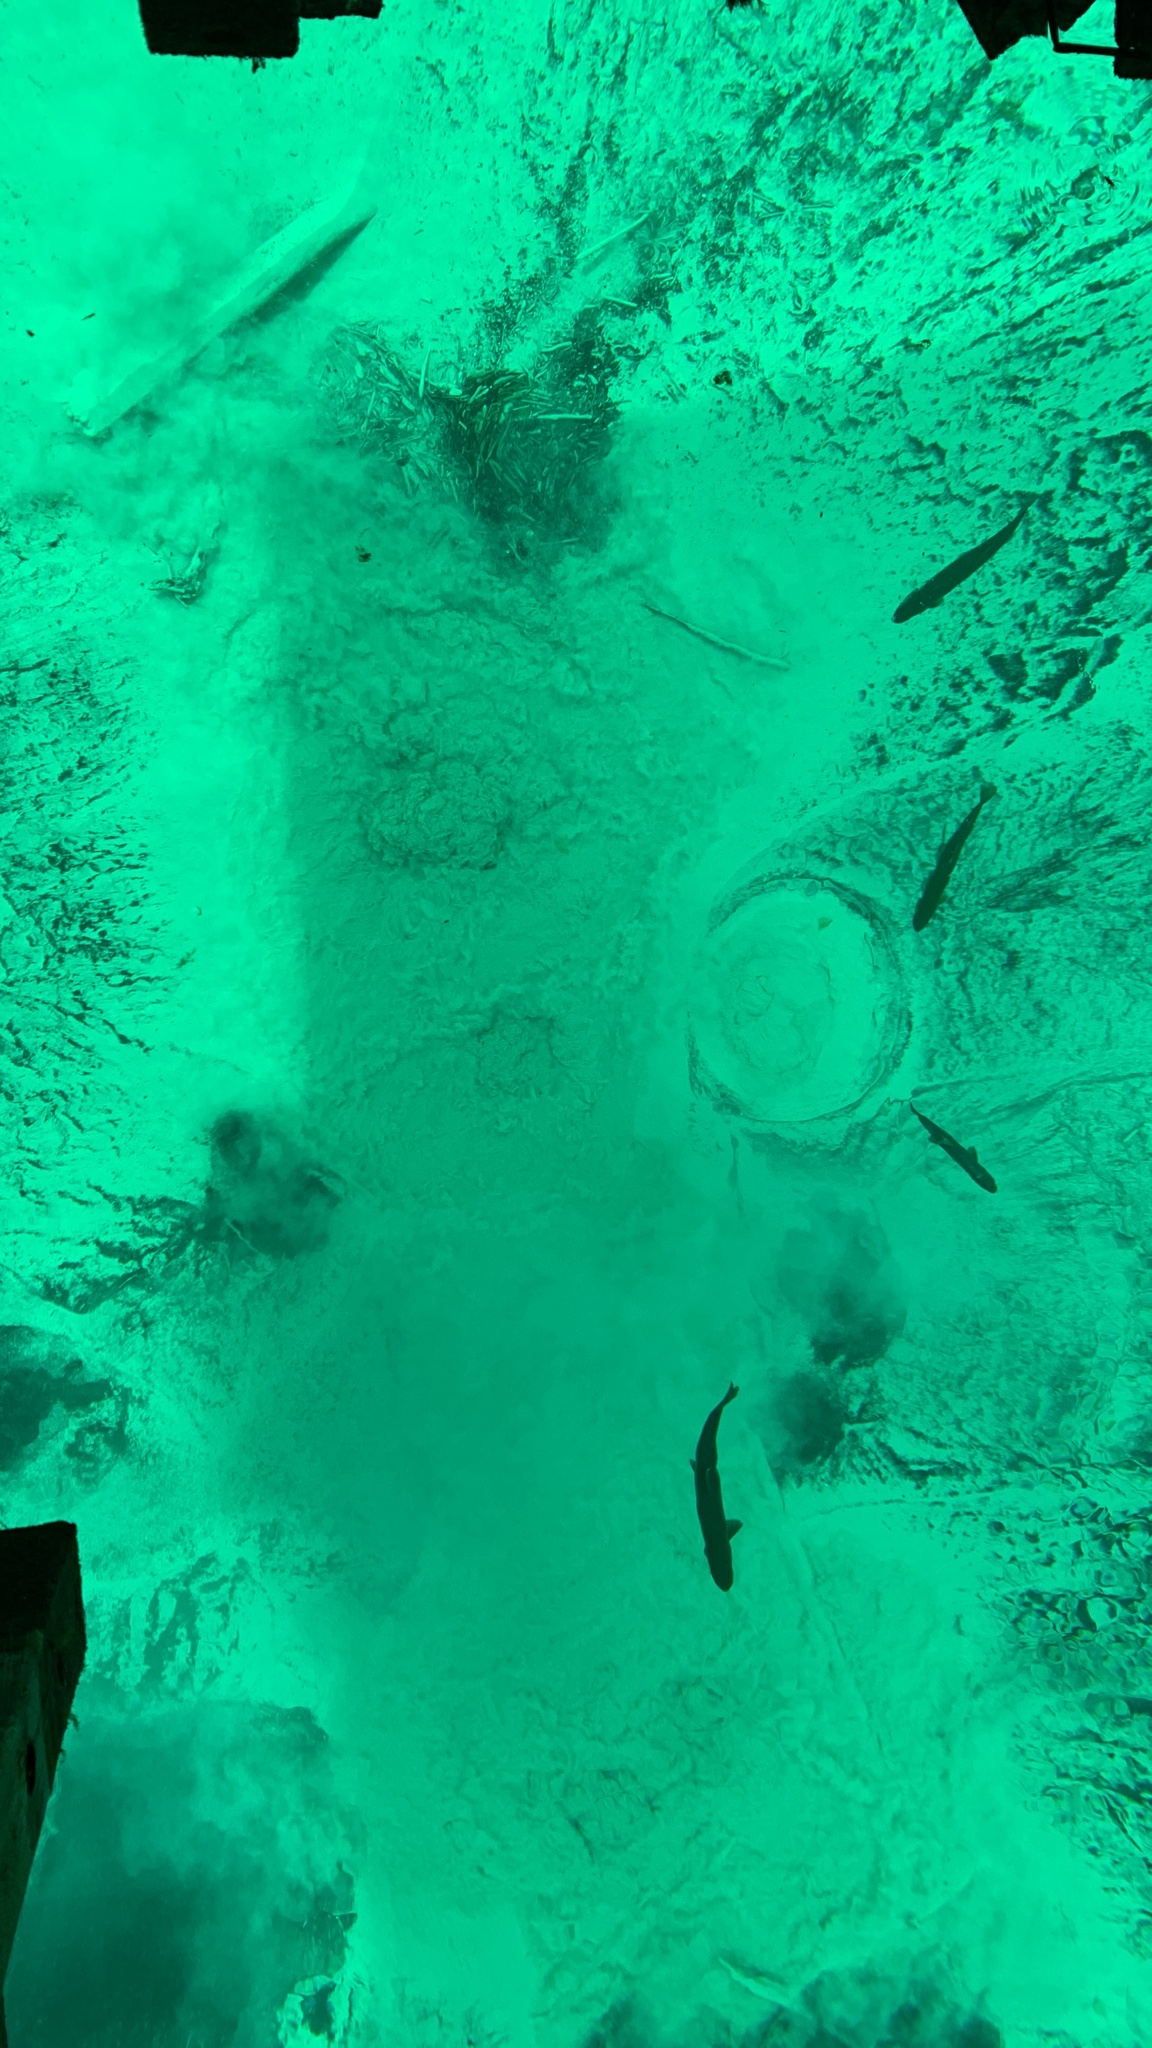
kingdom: Animalia
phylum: Chordata
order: Salmoniformes
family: Salmonidae
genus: Salvelinus
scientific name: Salvelinus namaycush
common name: American lake charr
